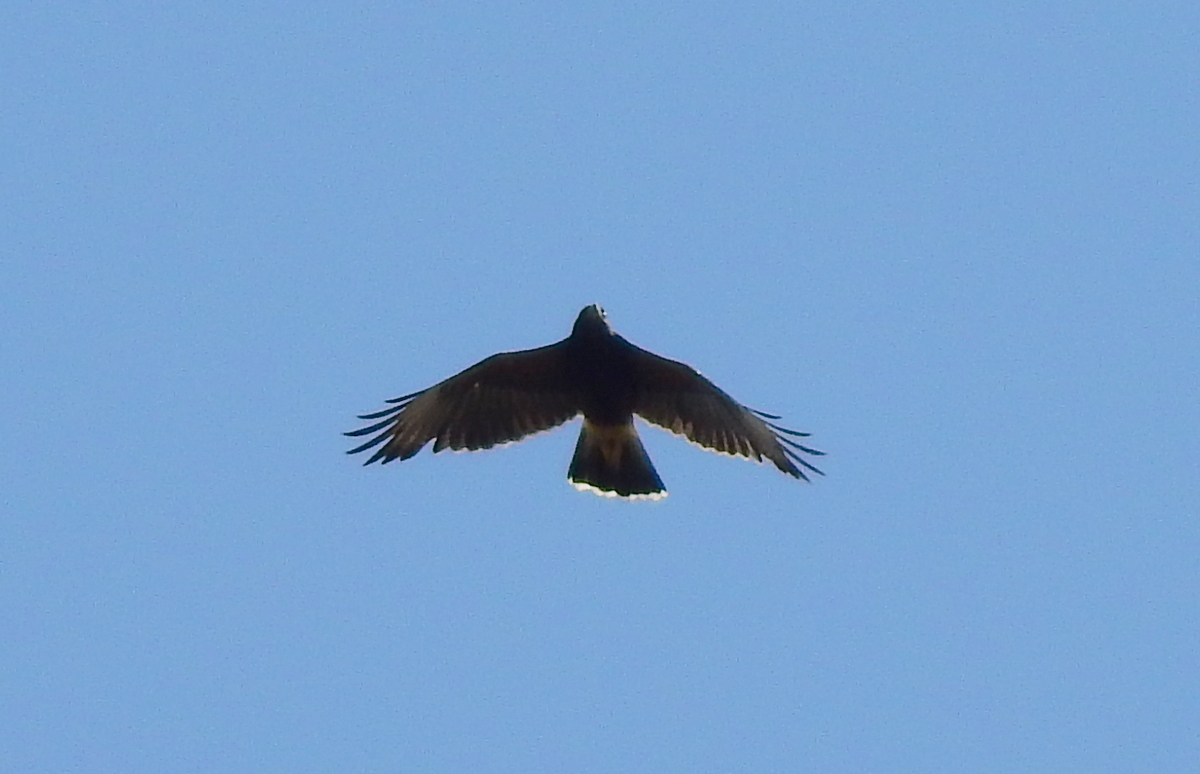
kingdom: Animalia
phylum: Chordata
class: Aves
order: Accipitriformes
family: Accipitridae
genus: Parabuteo
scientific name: Parabuteo unicinctus
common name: Harris's hawk
